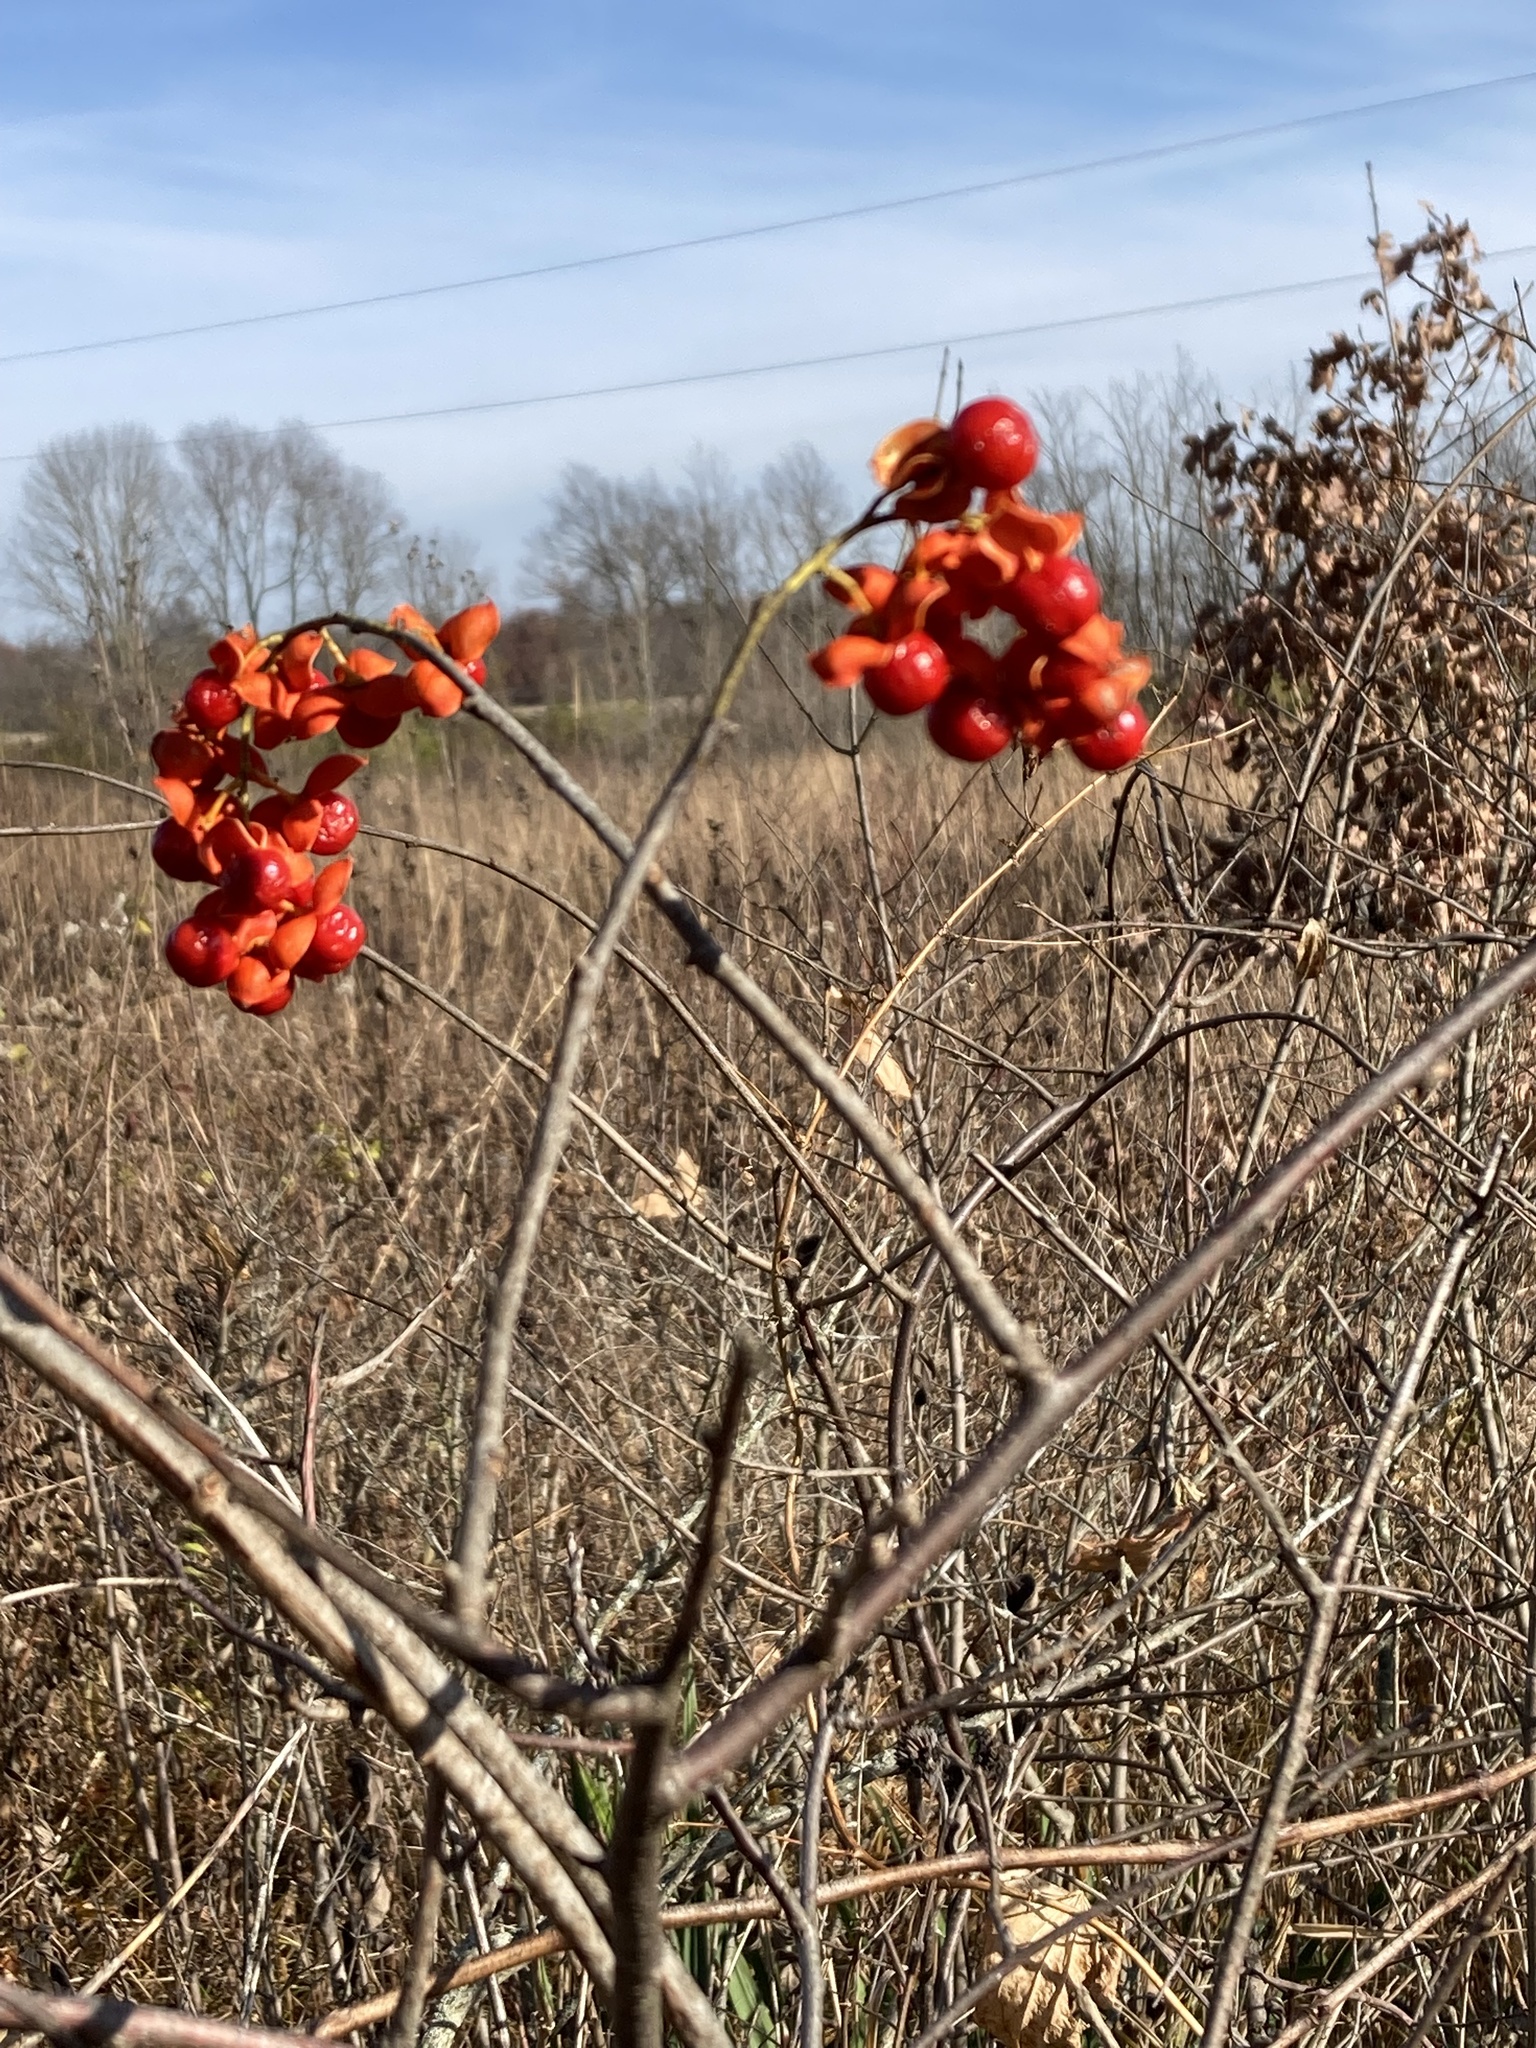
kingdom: Plantae
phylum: Tracheophyta
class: Magnoliopsida
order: Celastrales
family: Celastraceae
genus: Celastrus
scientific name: Celastrus scandens
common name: American bittersweet
